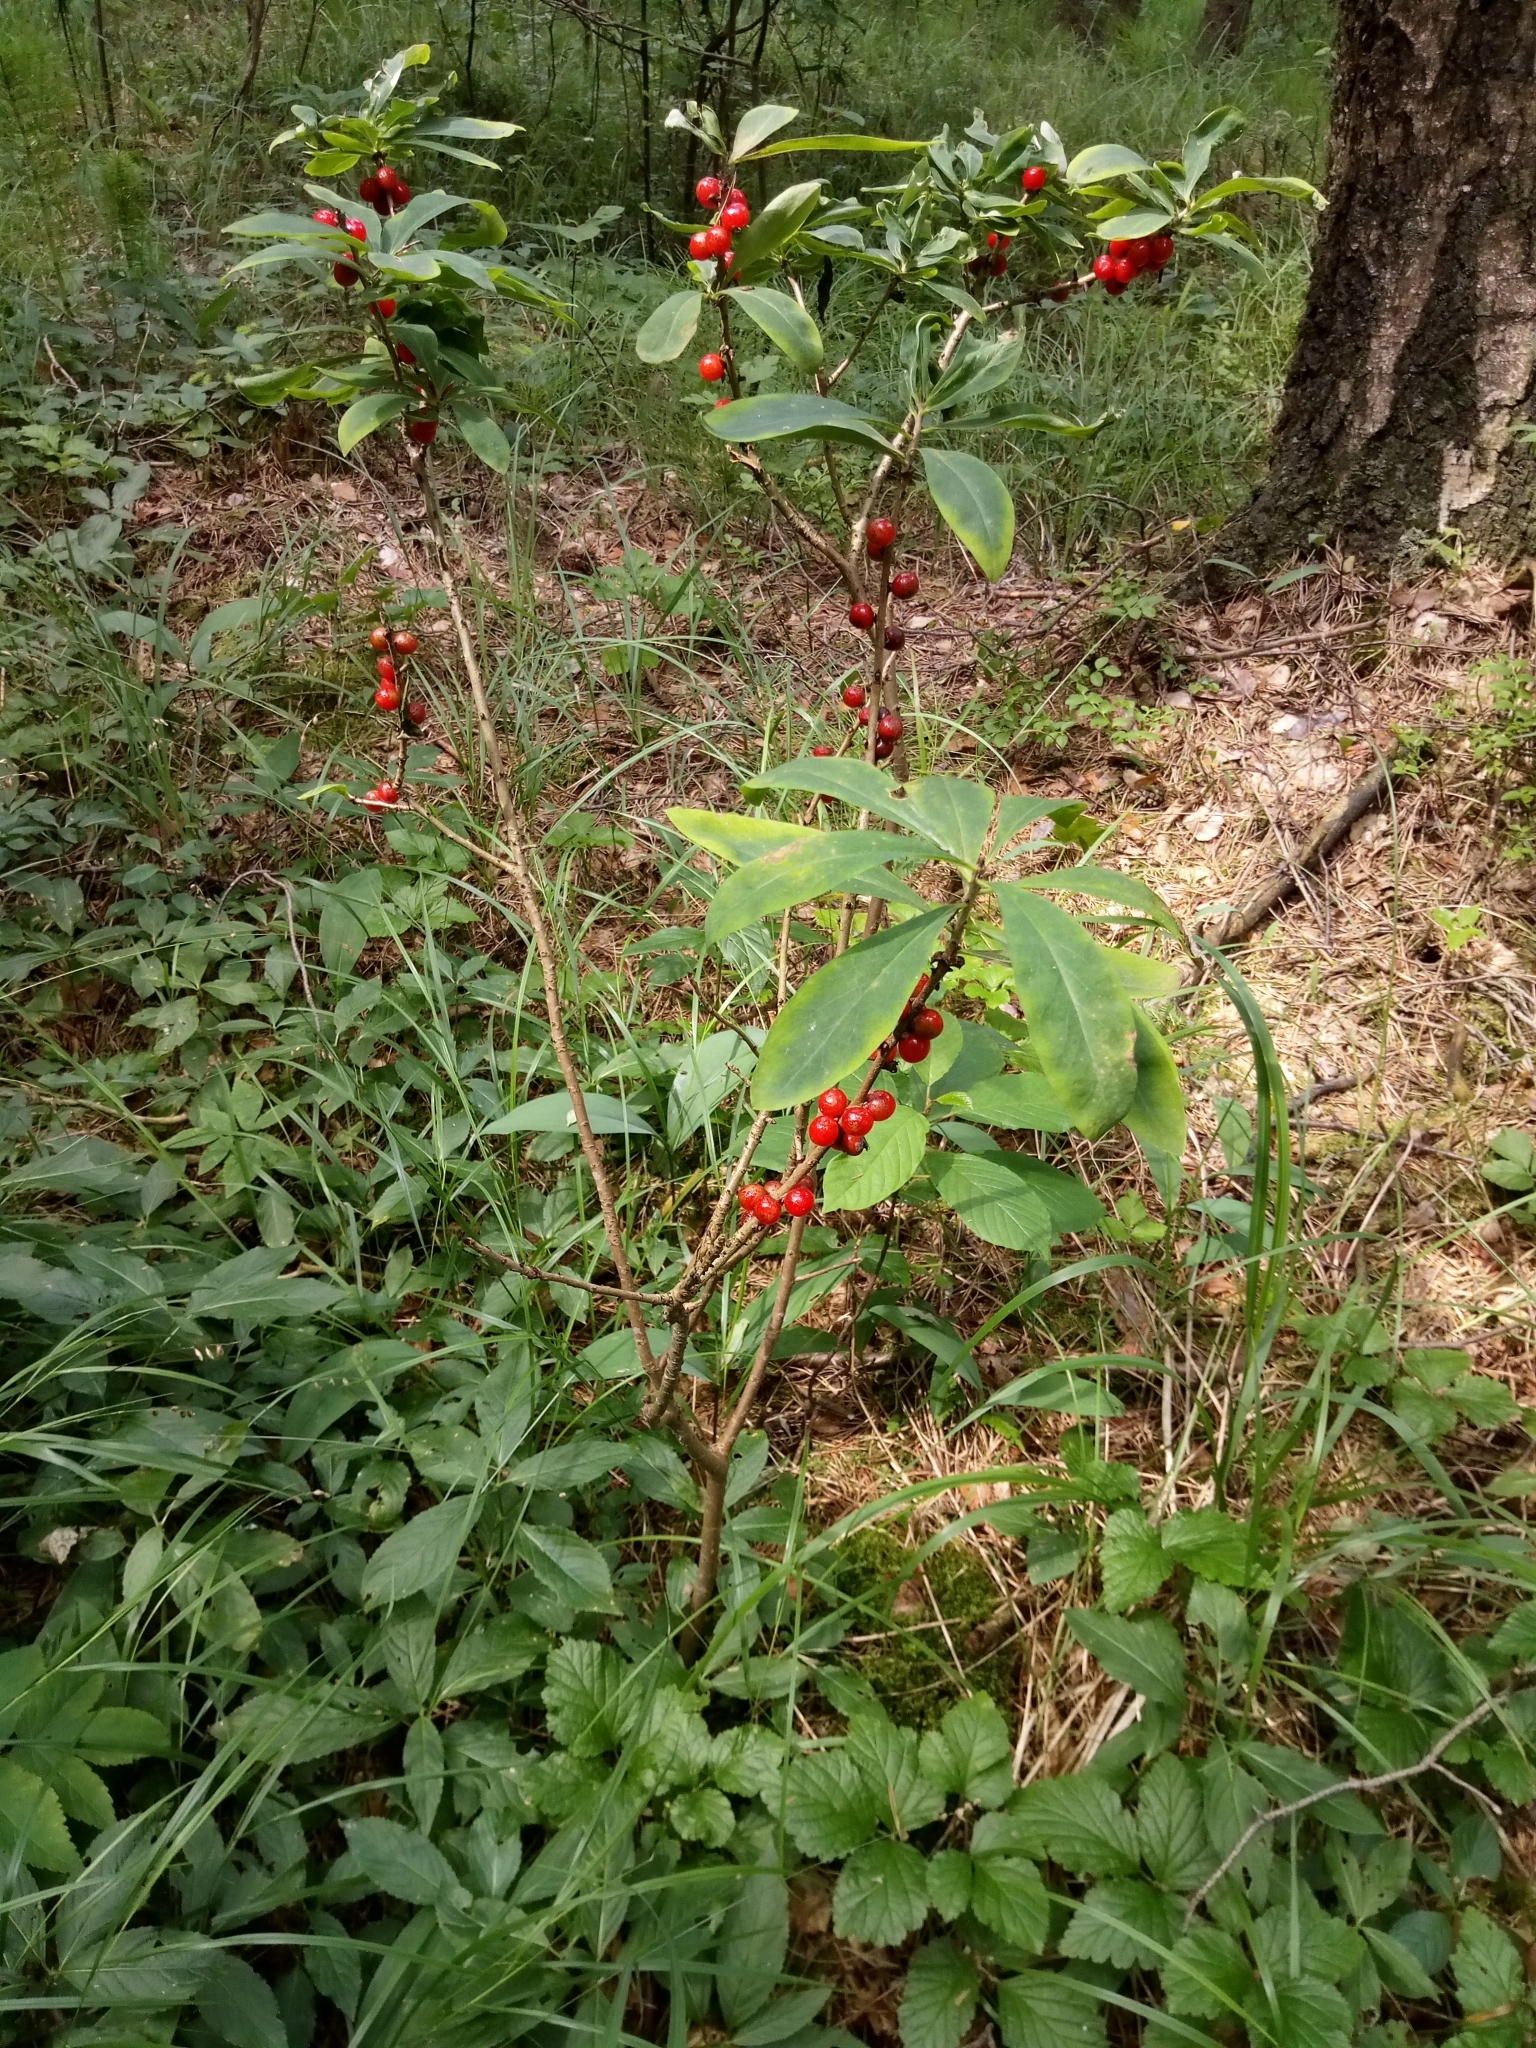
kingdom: Plantae
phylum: Tracheophyta
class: Magnoliopsida
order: Malvales
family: Thymelaeaceae
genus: Daphne
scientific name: Daphne mezereum
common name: Mezereon
